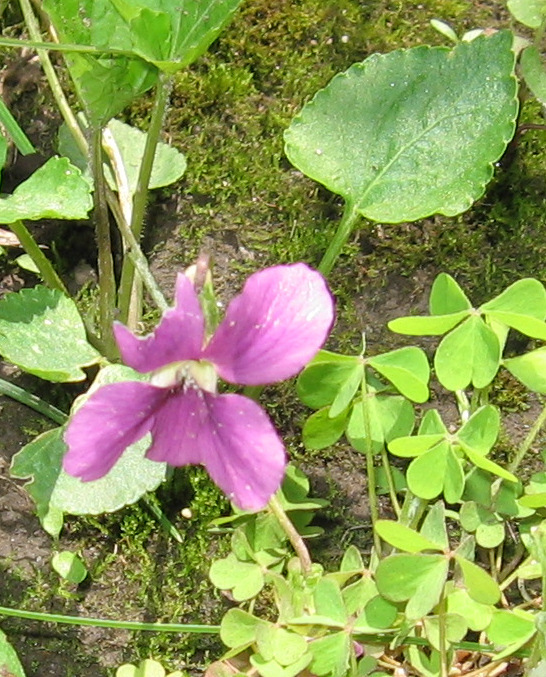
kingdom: Plantae
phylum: Tracheophyta
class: Magnoliopsida
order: Malpighiales
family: Violaceae
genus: Viola
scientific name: Viola sororia
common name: Dooryard violet
